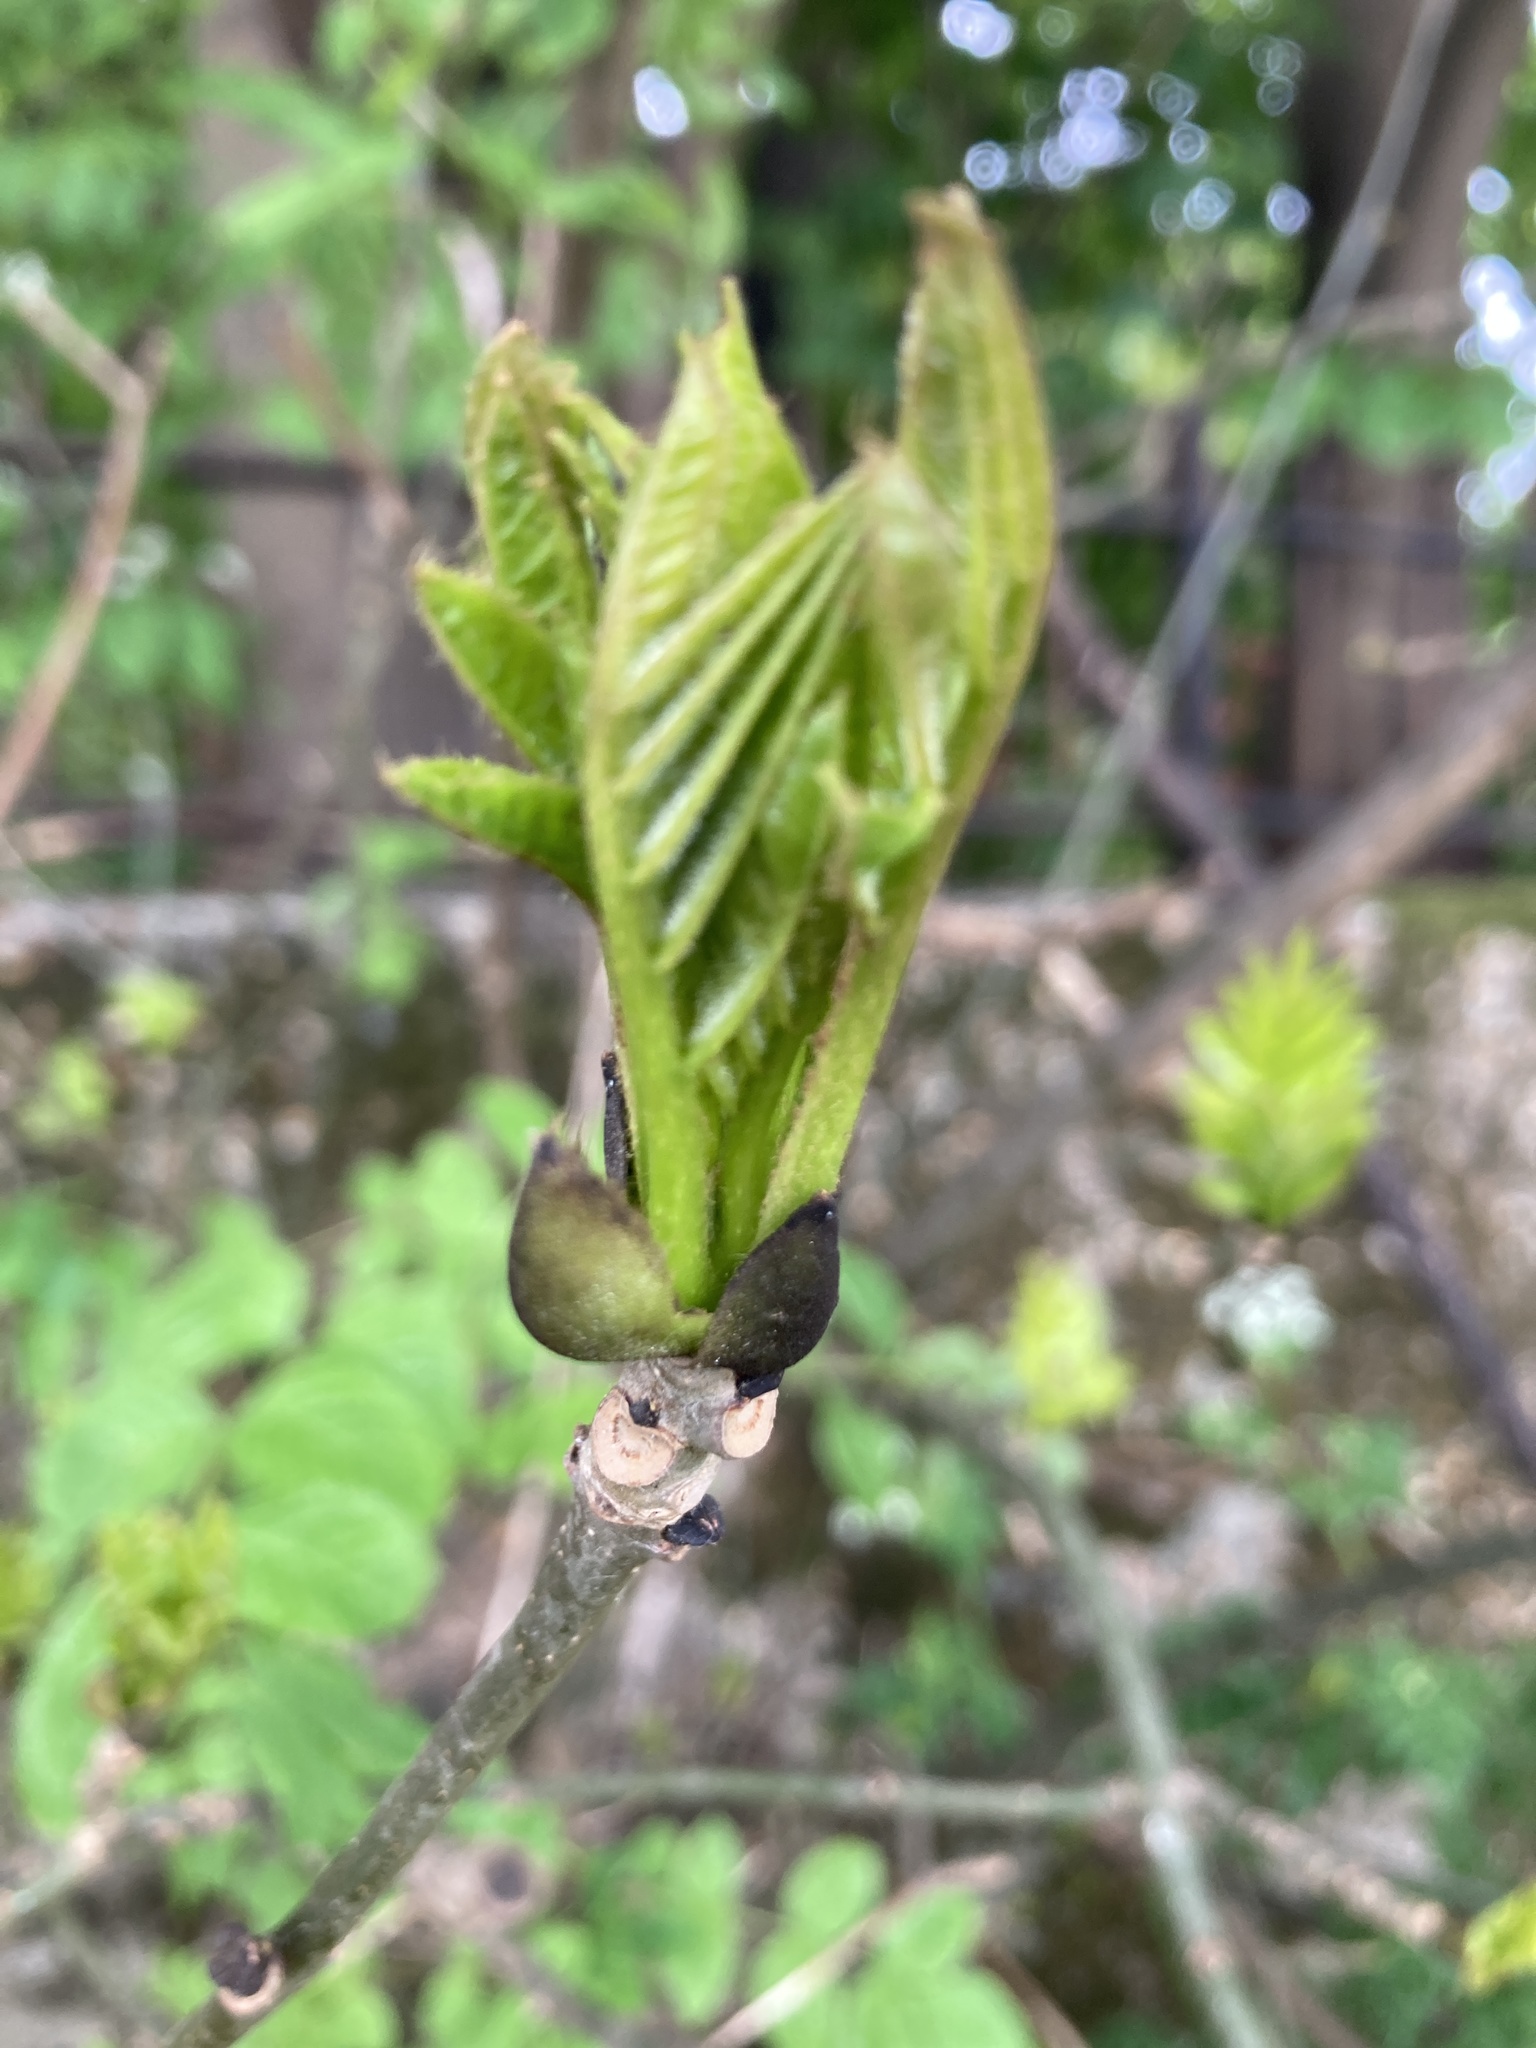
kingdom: Plantae
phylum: Tracheophyta
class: Magnoliopsida
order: Lamiales
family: Oleaceae
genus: Fraxinus
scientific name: Fraxinus excelsior
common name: European ash
